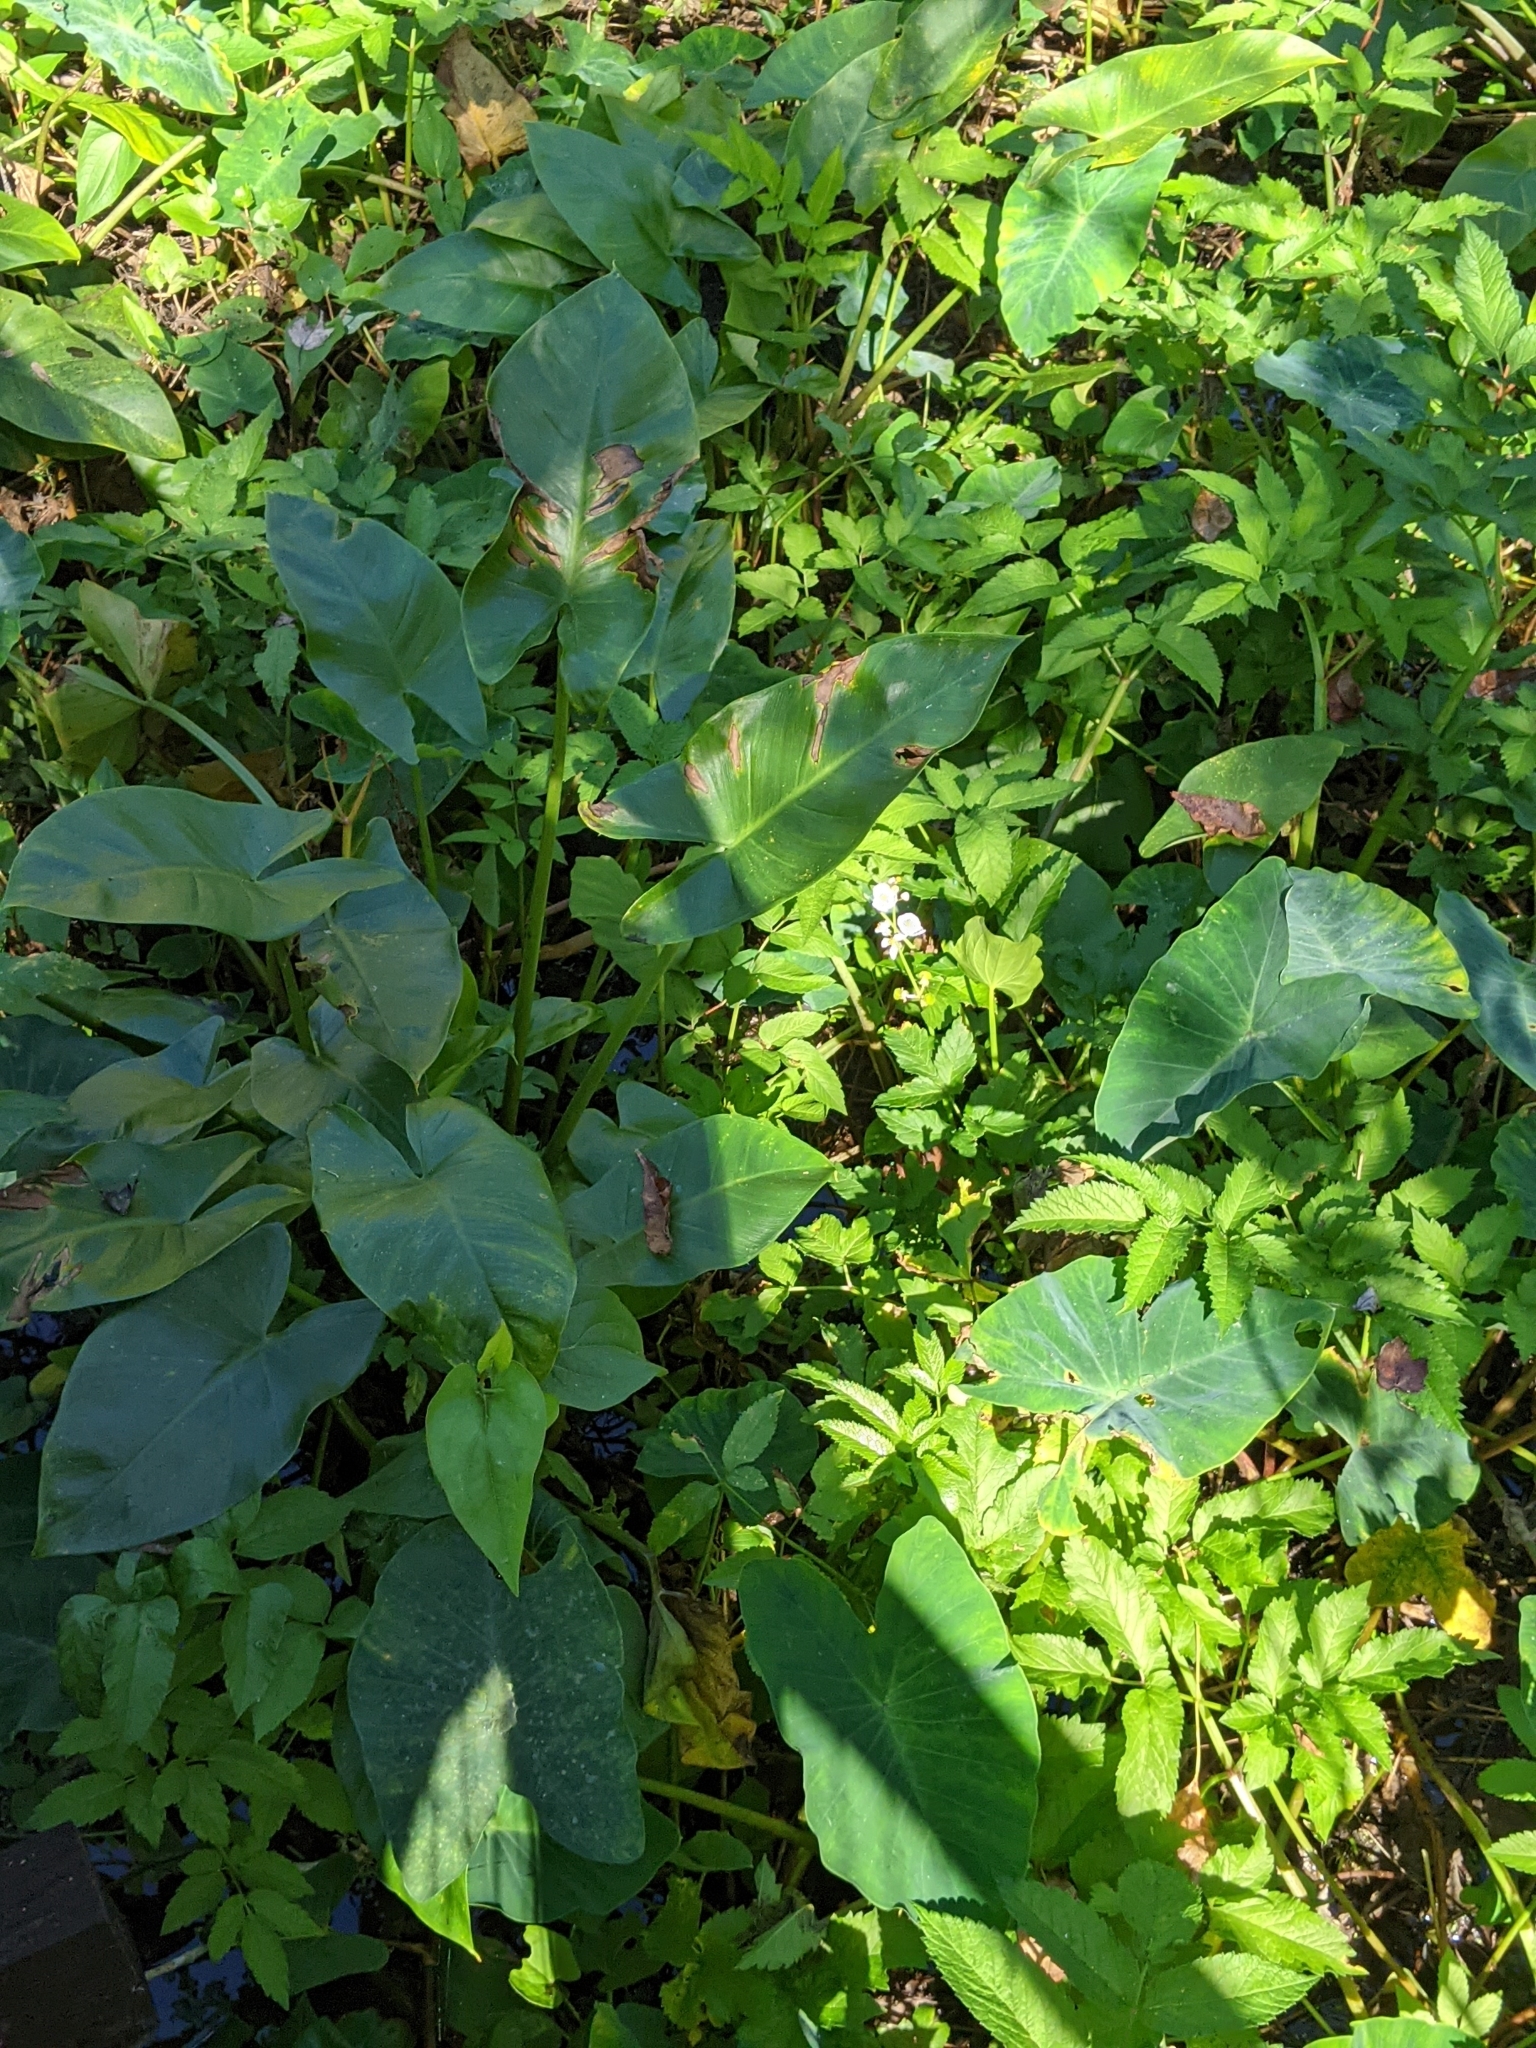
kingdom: Plantae
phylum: Tracheophyta
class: Liliopsida
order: Alismatales
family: Araceae
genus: Peltandra
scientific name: Peltandra virginica
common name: Arrow arum
